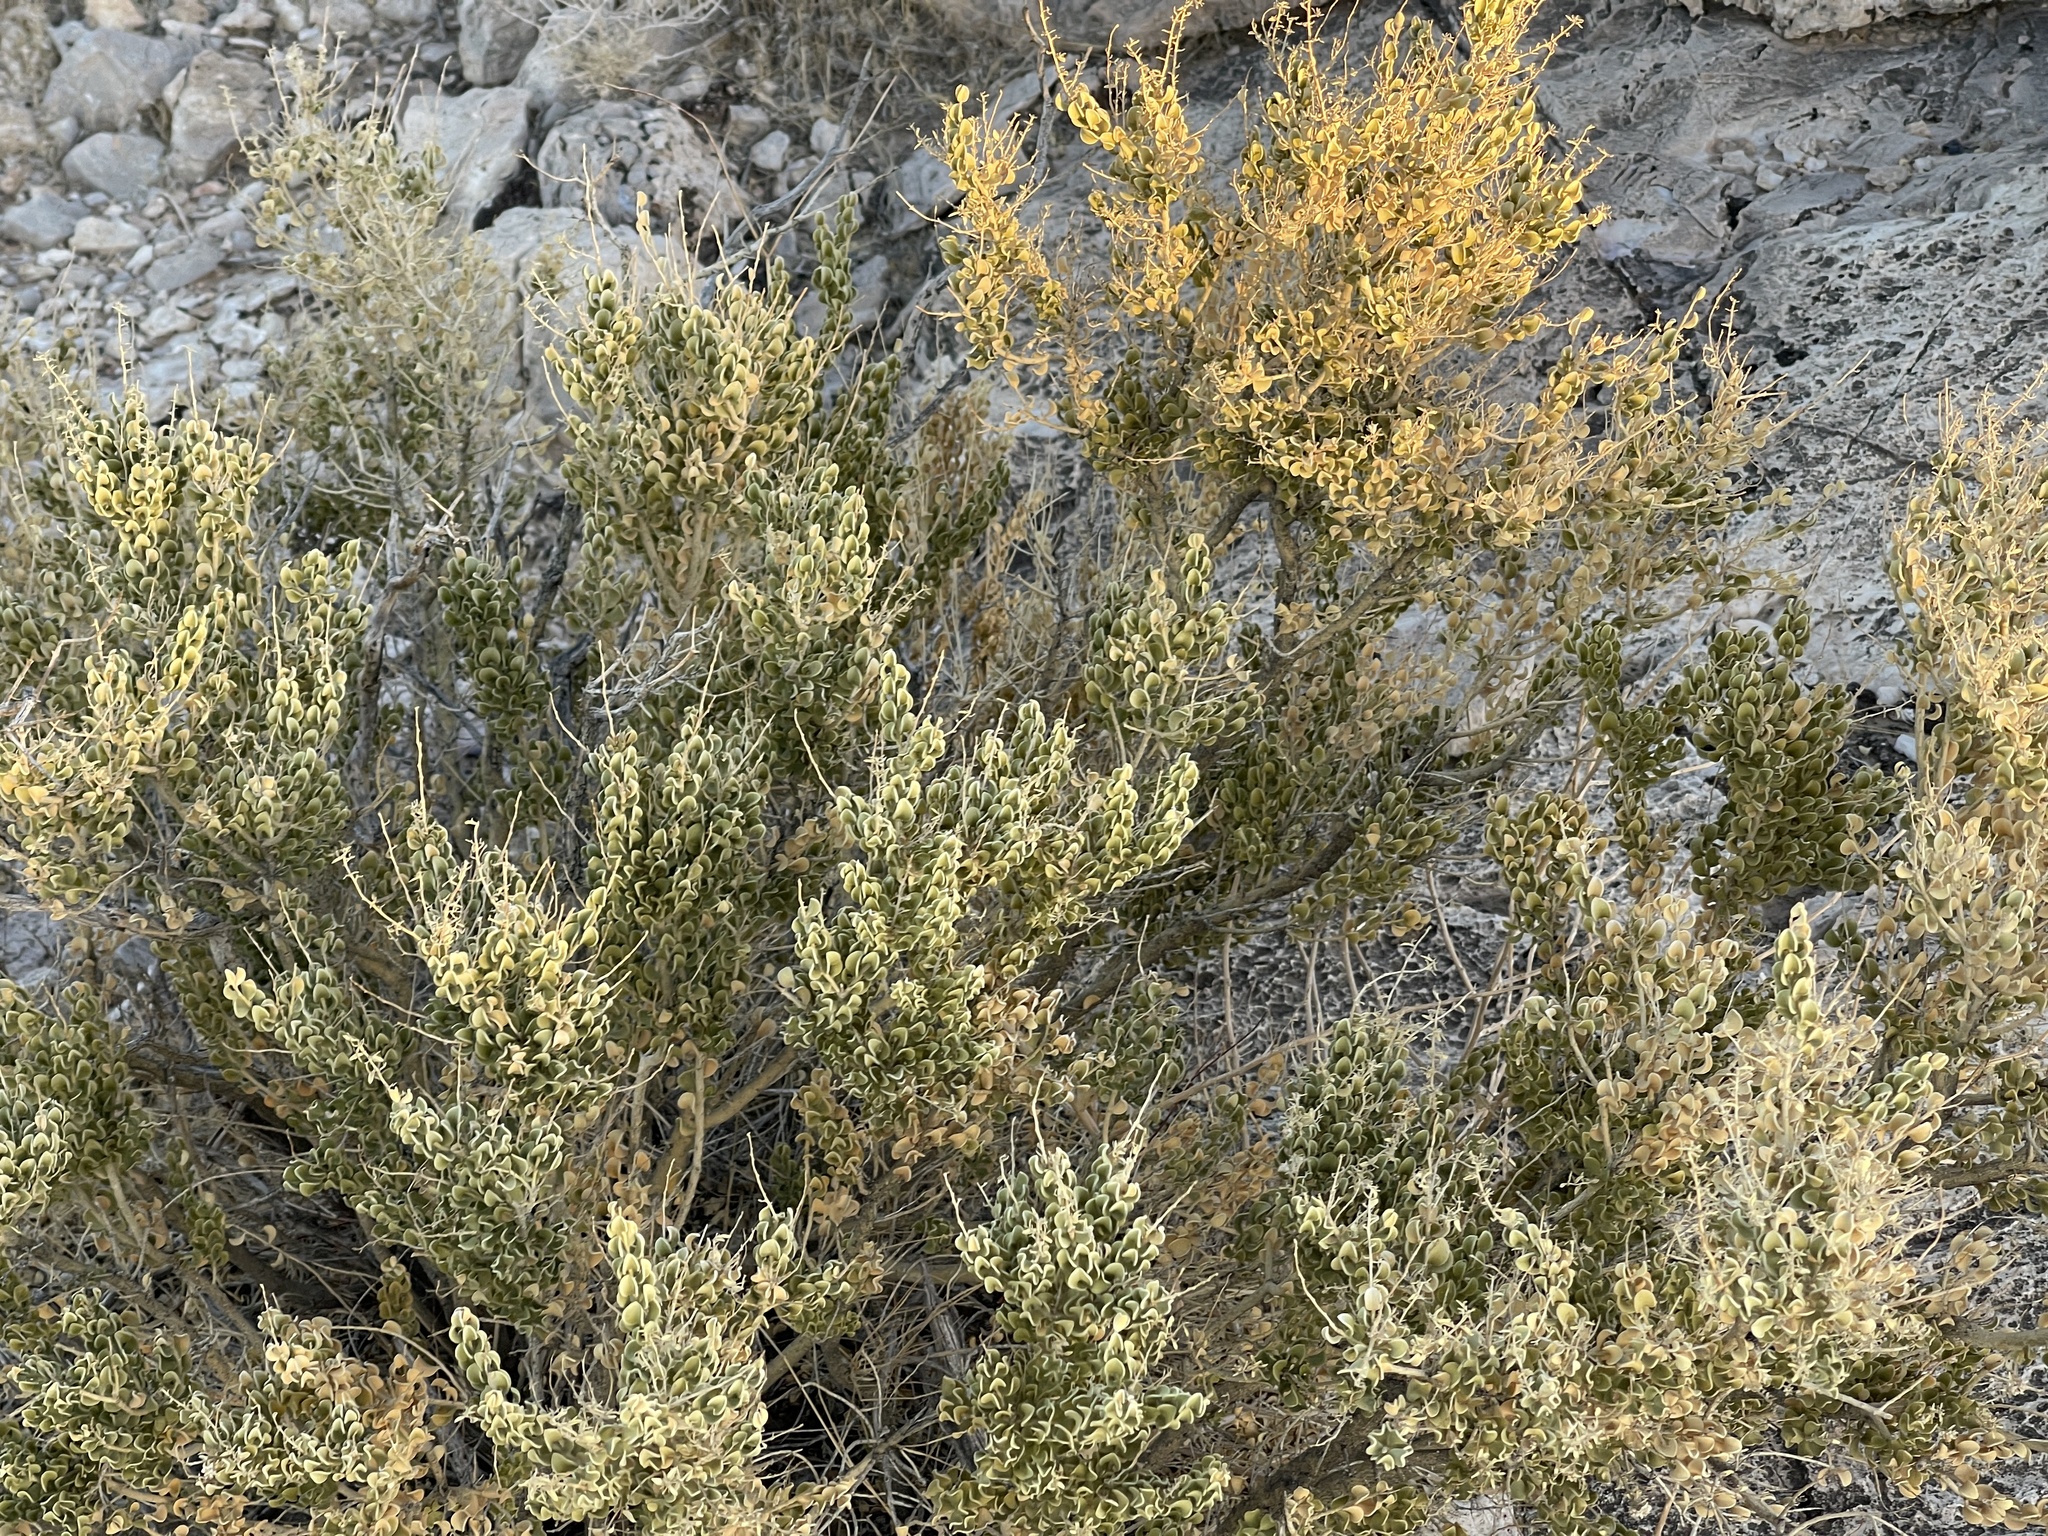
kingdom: Plantae
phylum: Tracheophyta
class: Magnoliopsida
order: Celastrales
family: Celastraceae
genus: Mortonia
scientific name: Mortonia utahensis
